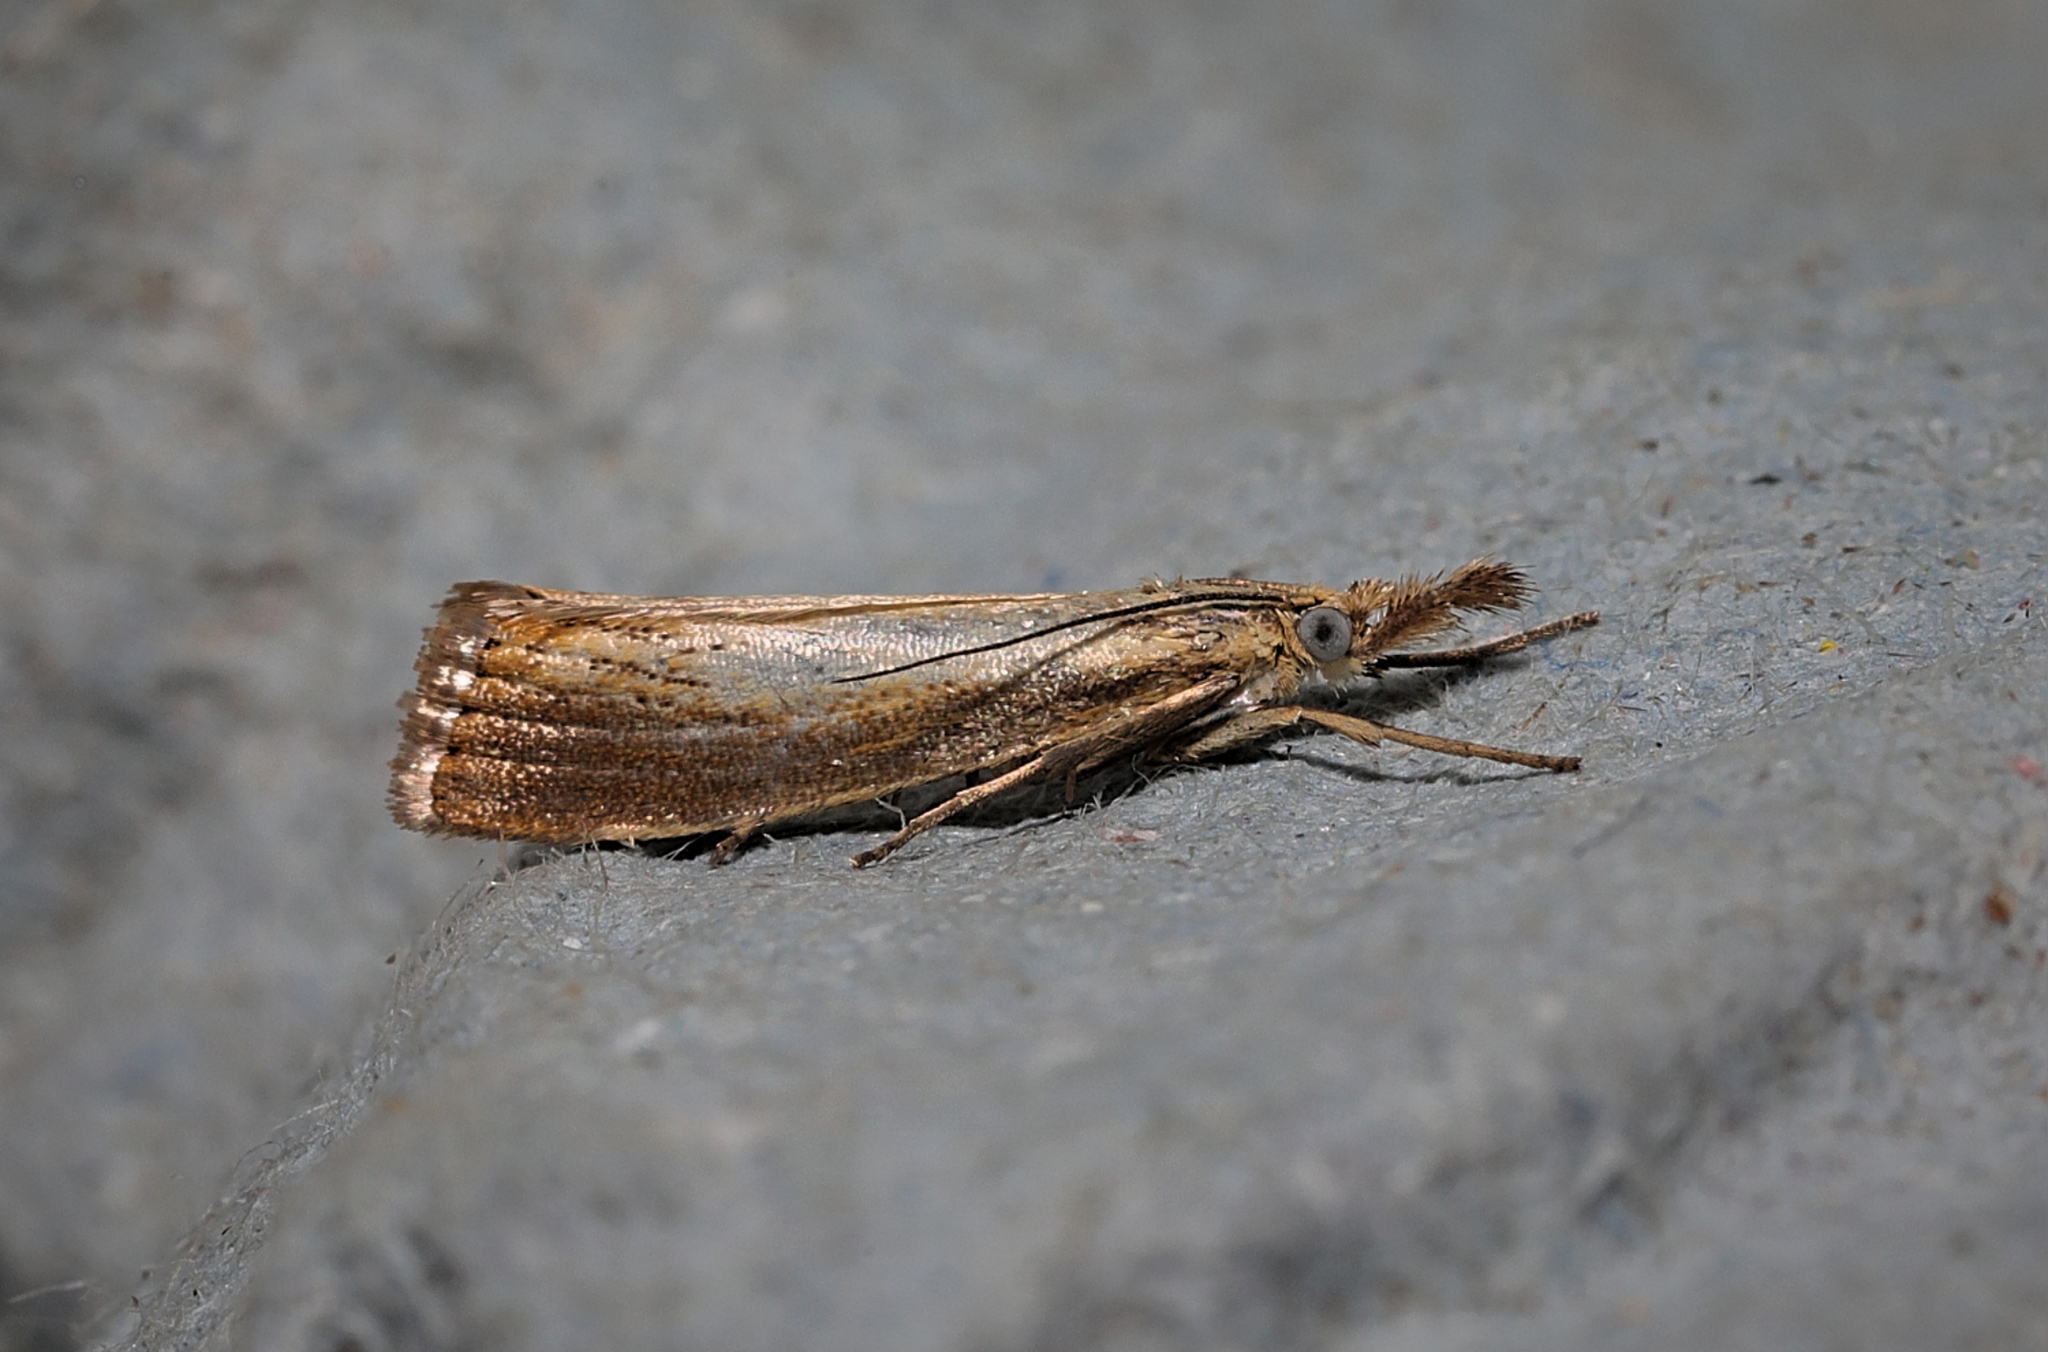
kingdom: Animalia
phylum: Arthropoda
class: Insecta
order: Lepidoptera
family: Crambidae
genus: Agriphila
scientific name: Agriphila straminella
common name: Straw grass-veneer
